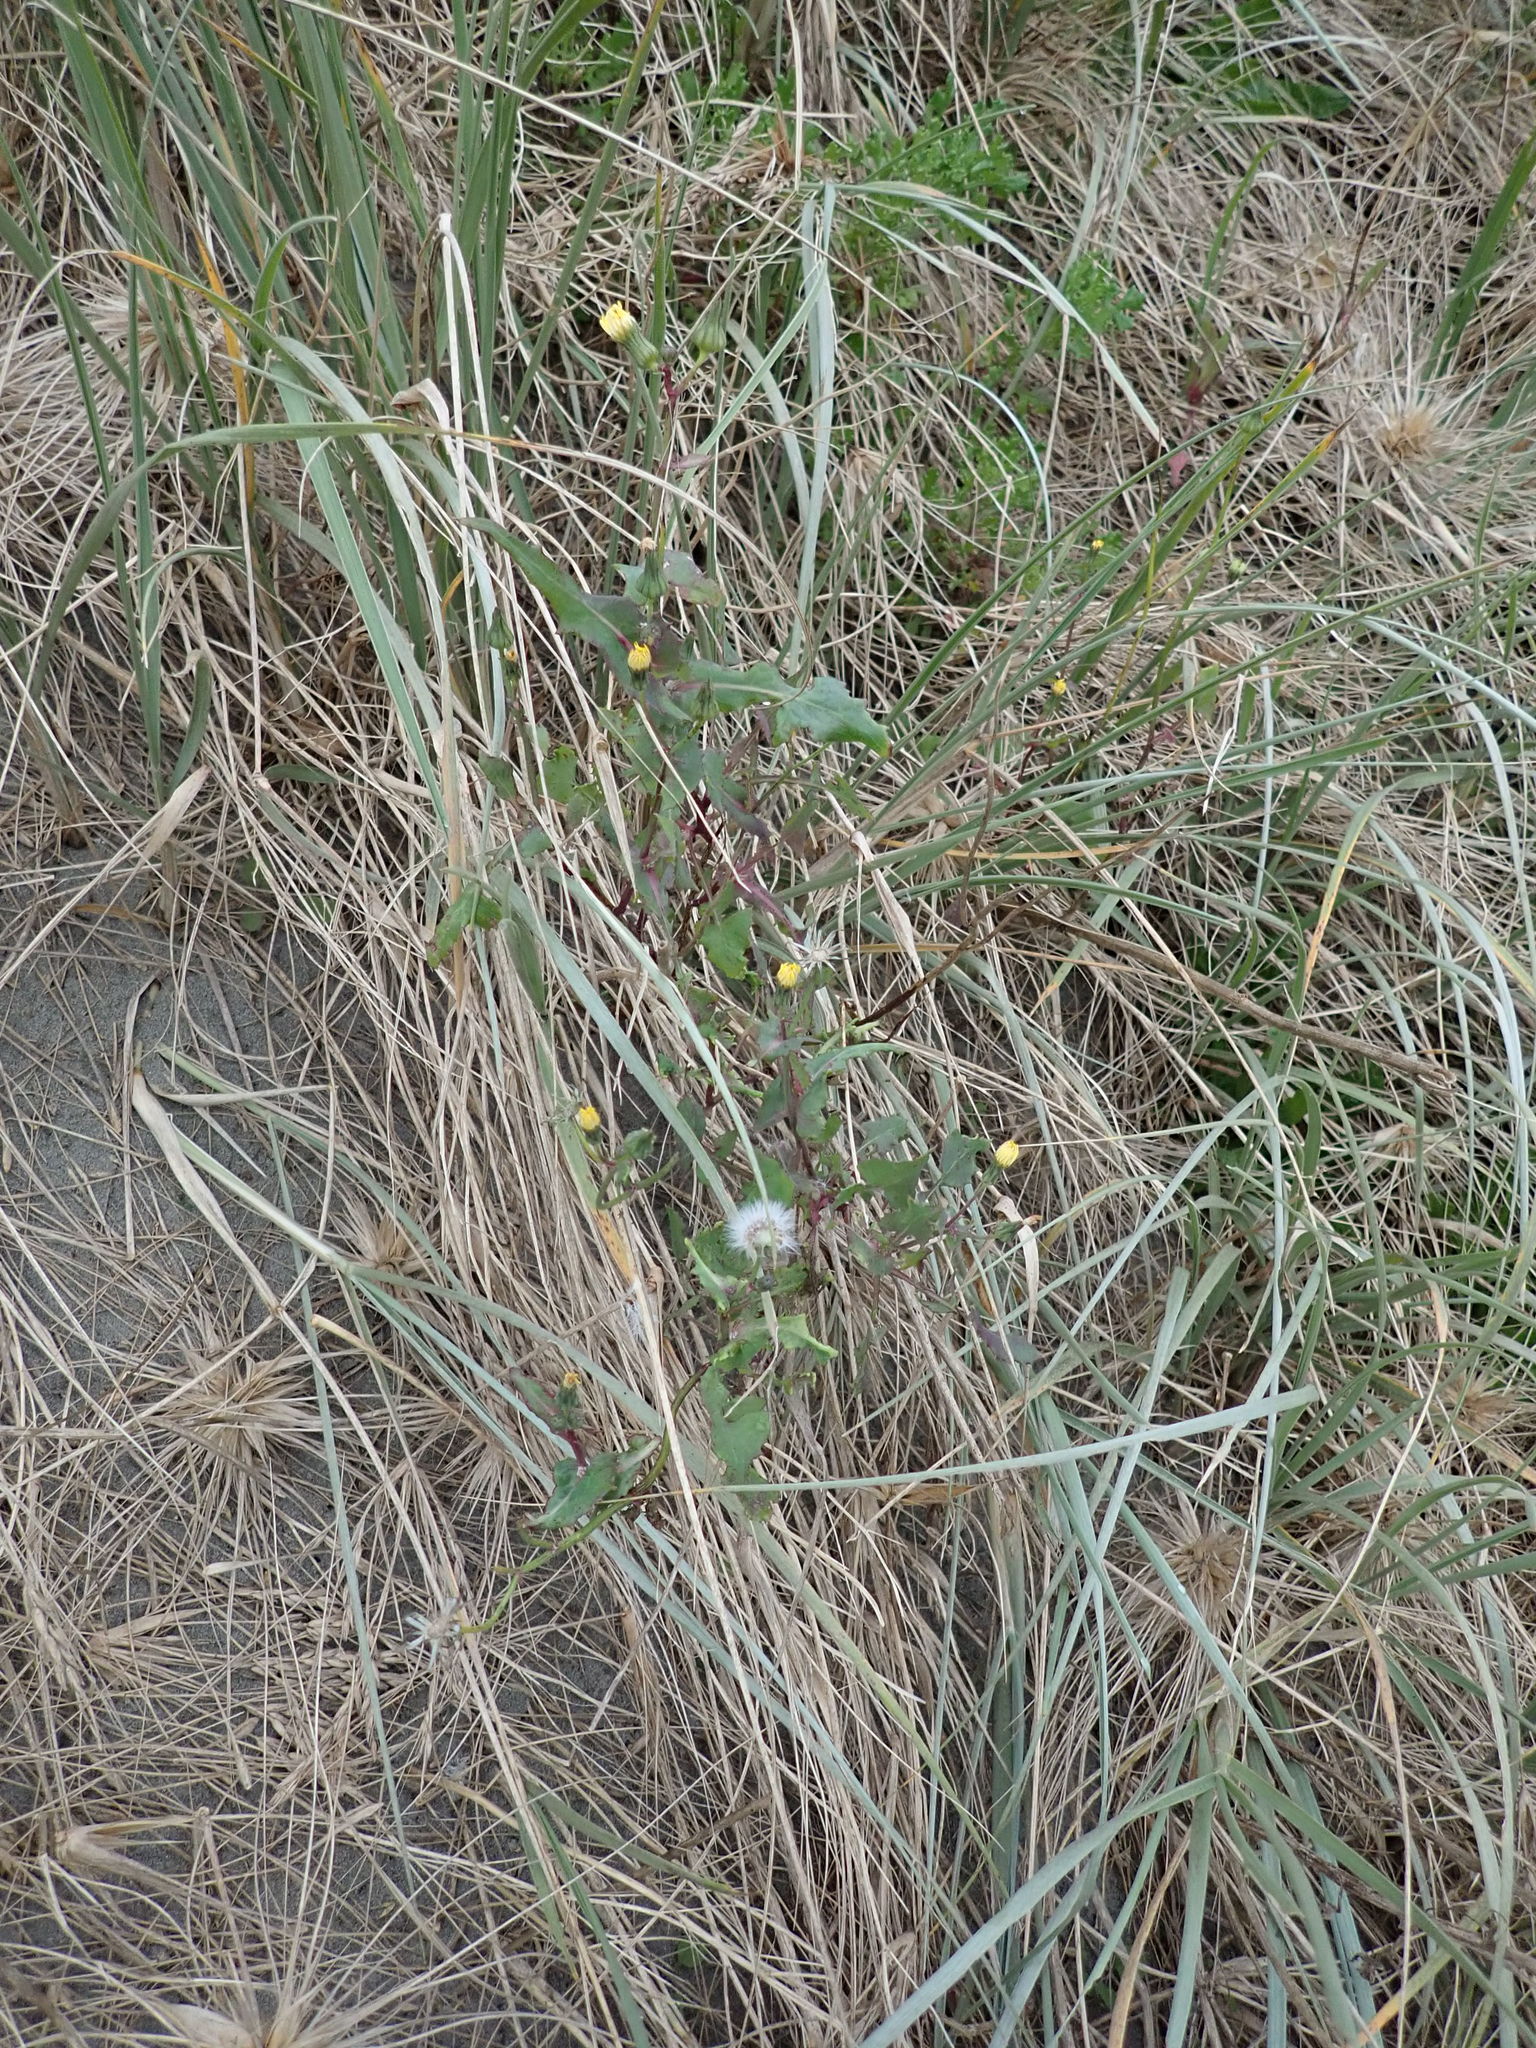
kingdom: Plantae
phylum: Tracheophyta
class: Magnoliopsida
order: Asterales
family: Asteraceae
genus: Sonchus
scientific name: Sonchus oleraceus
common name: Common sowthistle
